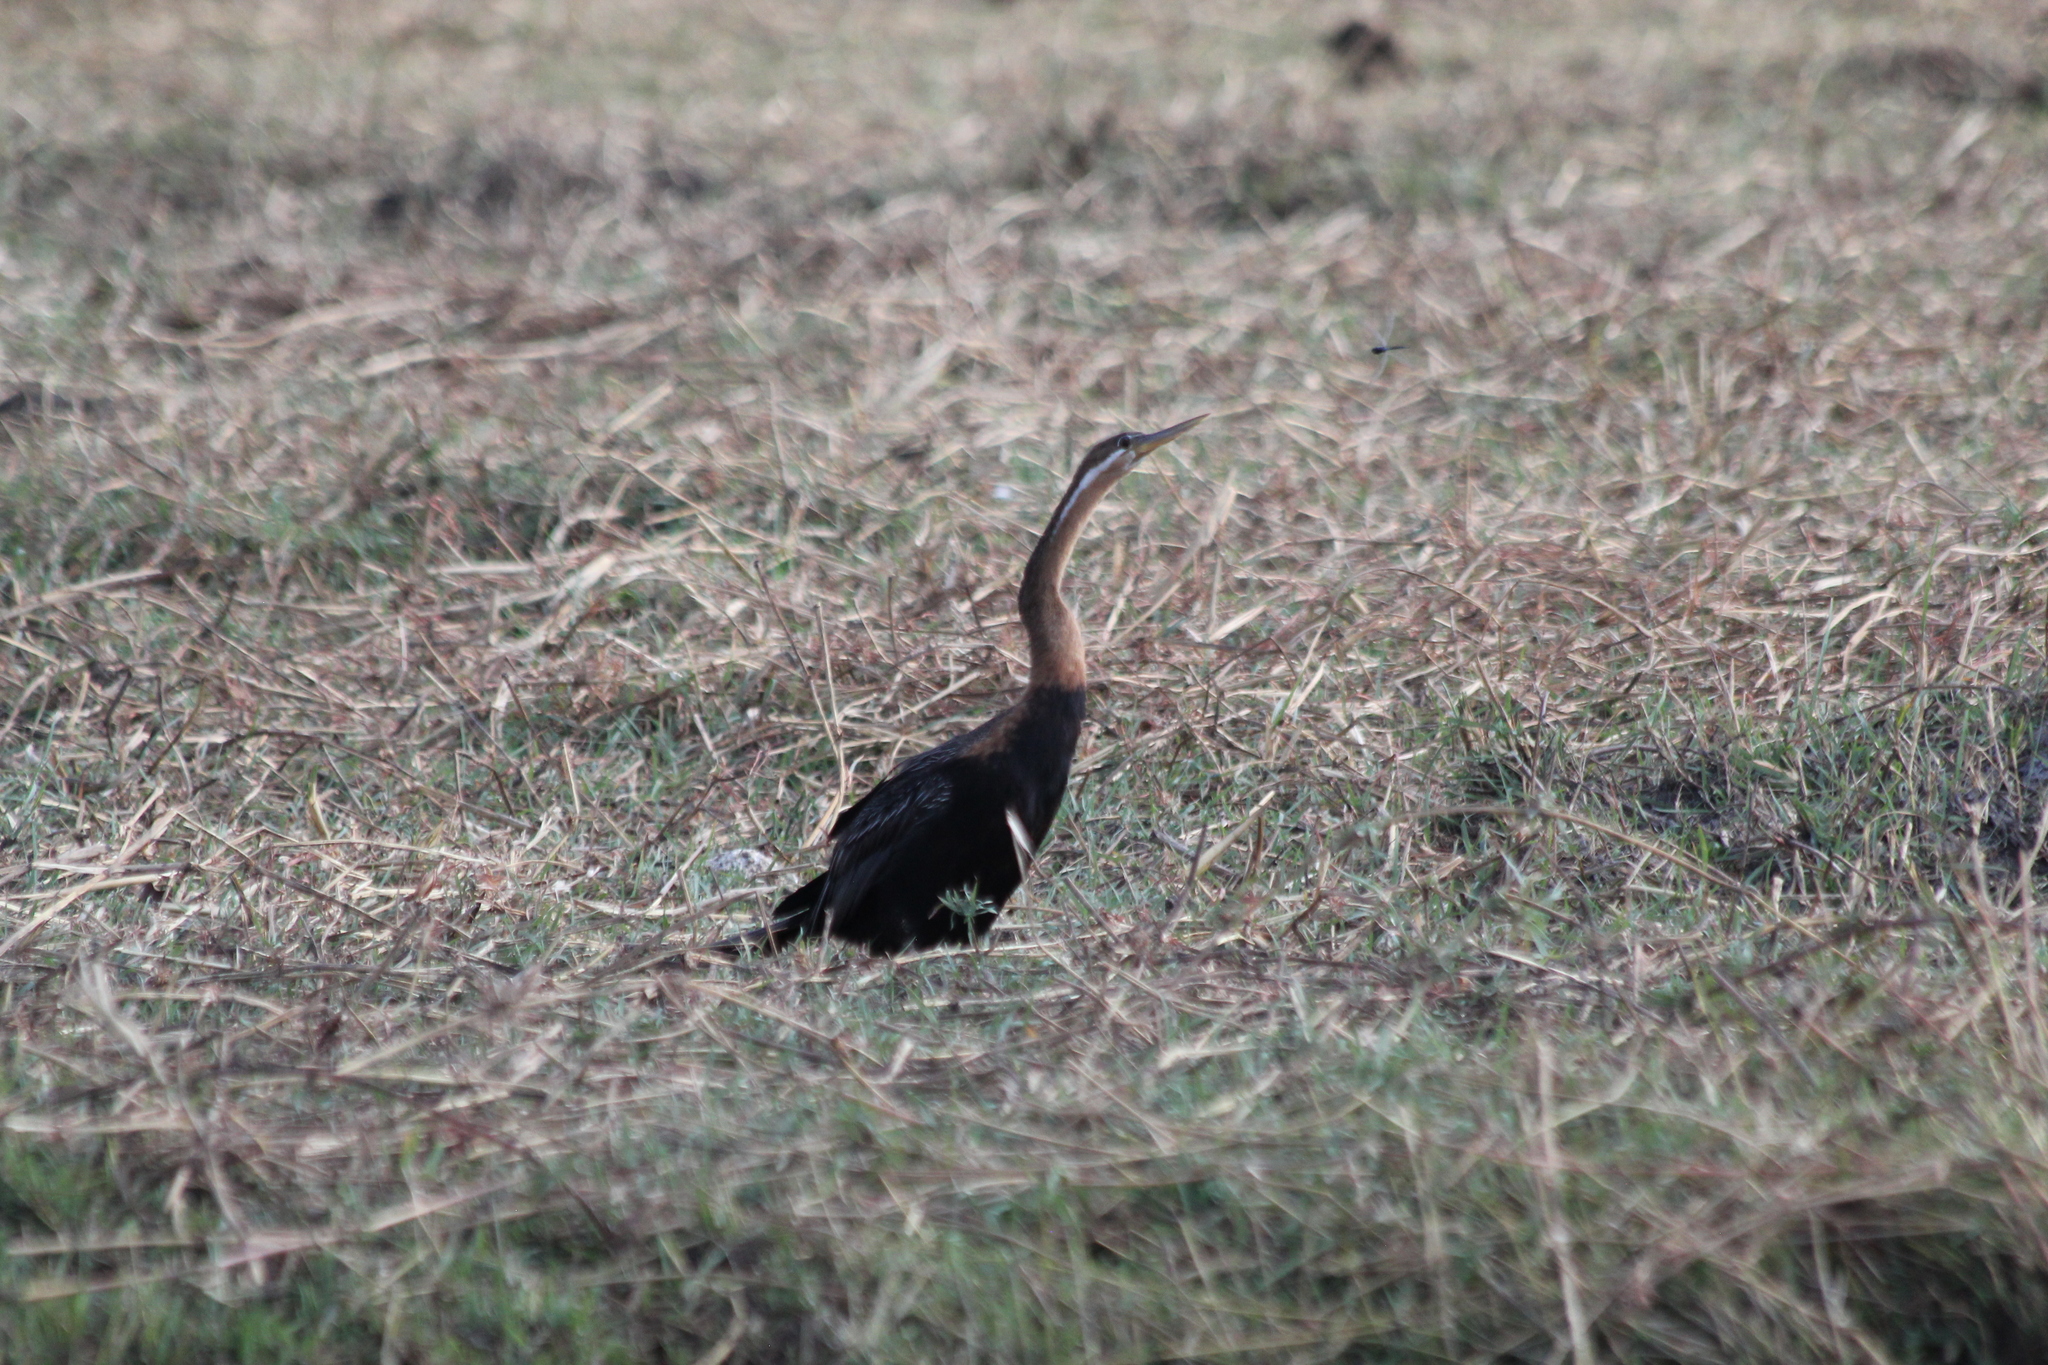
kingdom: Animalia
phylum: Chordata
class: Aves
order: Suliformes
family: Anhingidae
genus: Anhinga
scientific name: Anhinga rufa
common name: African darter
